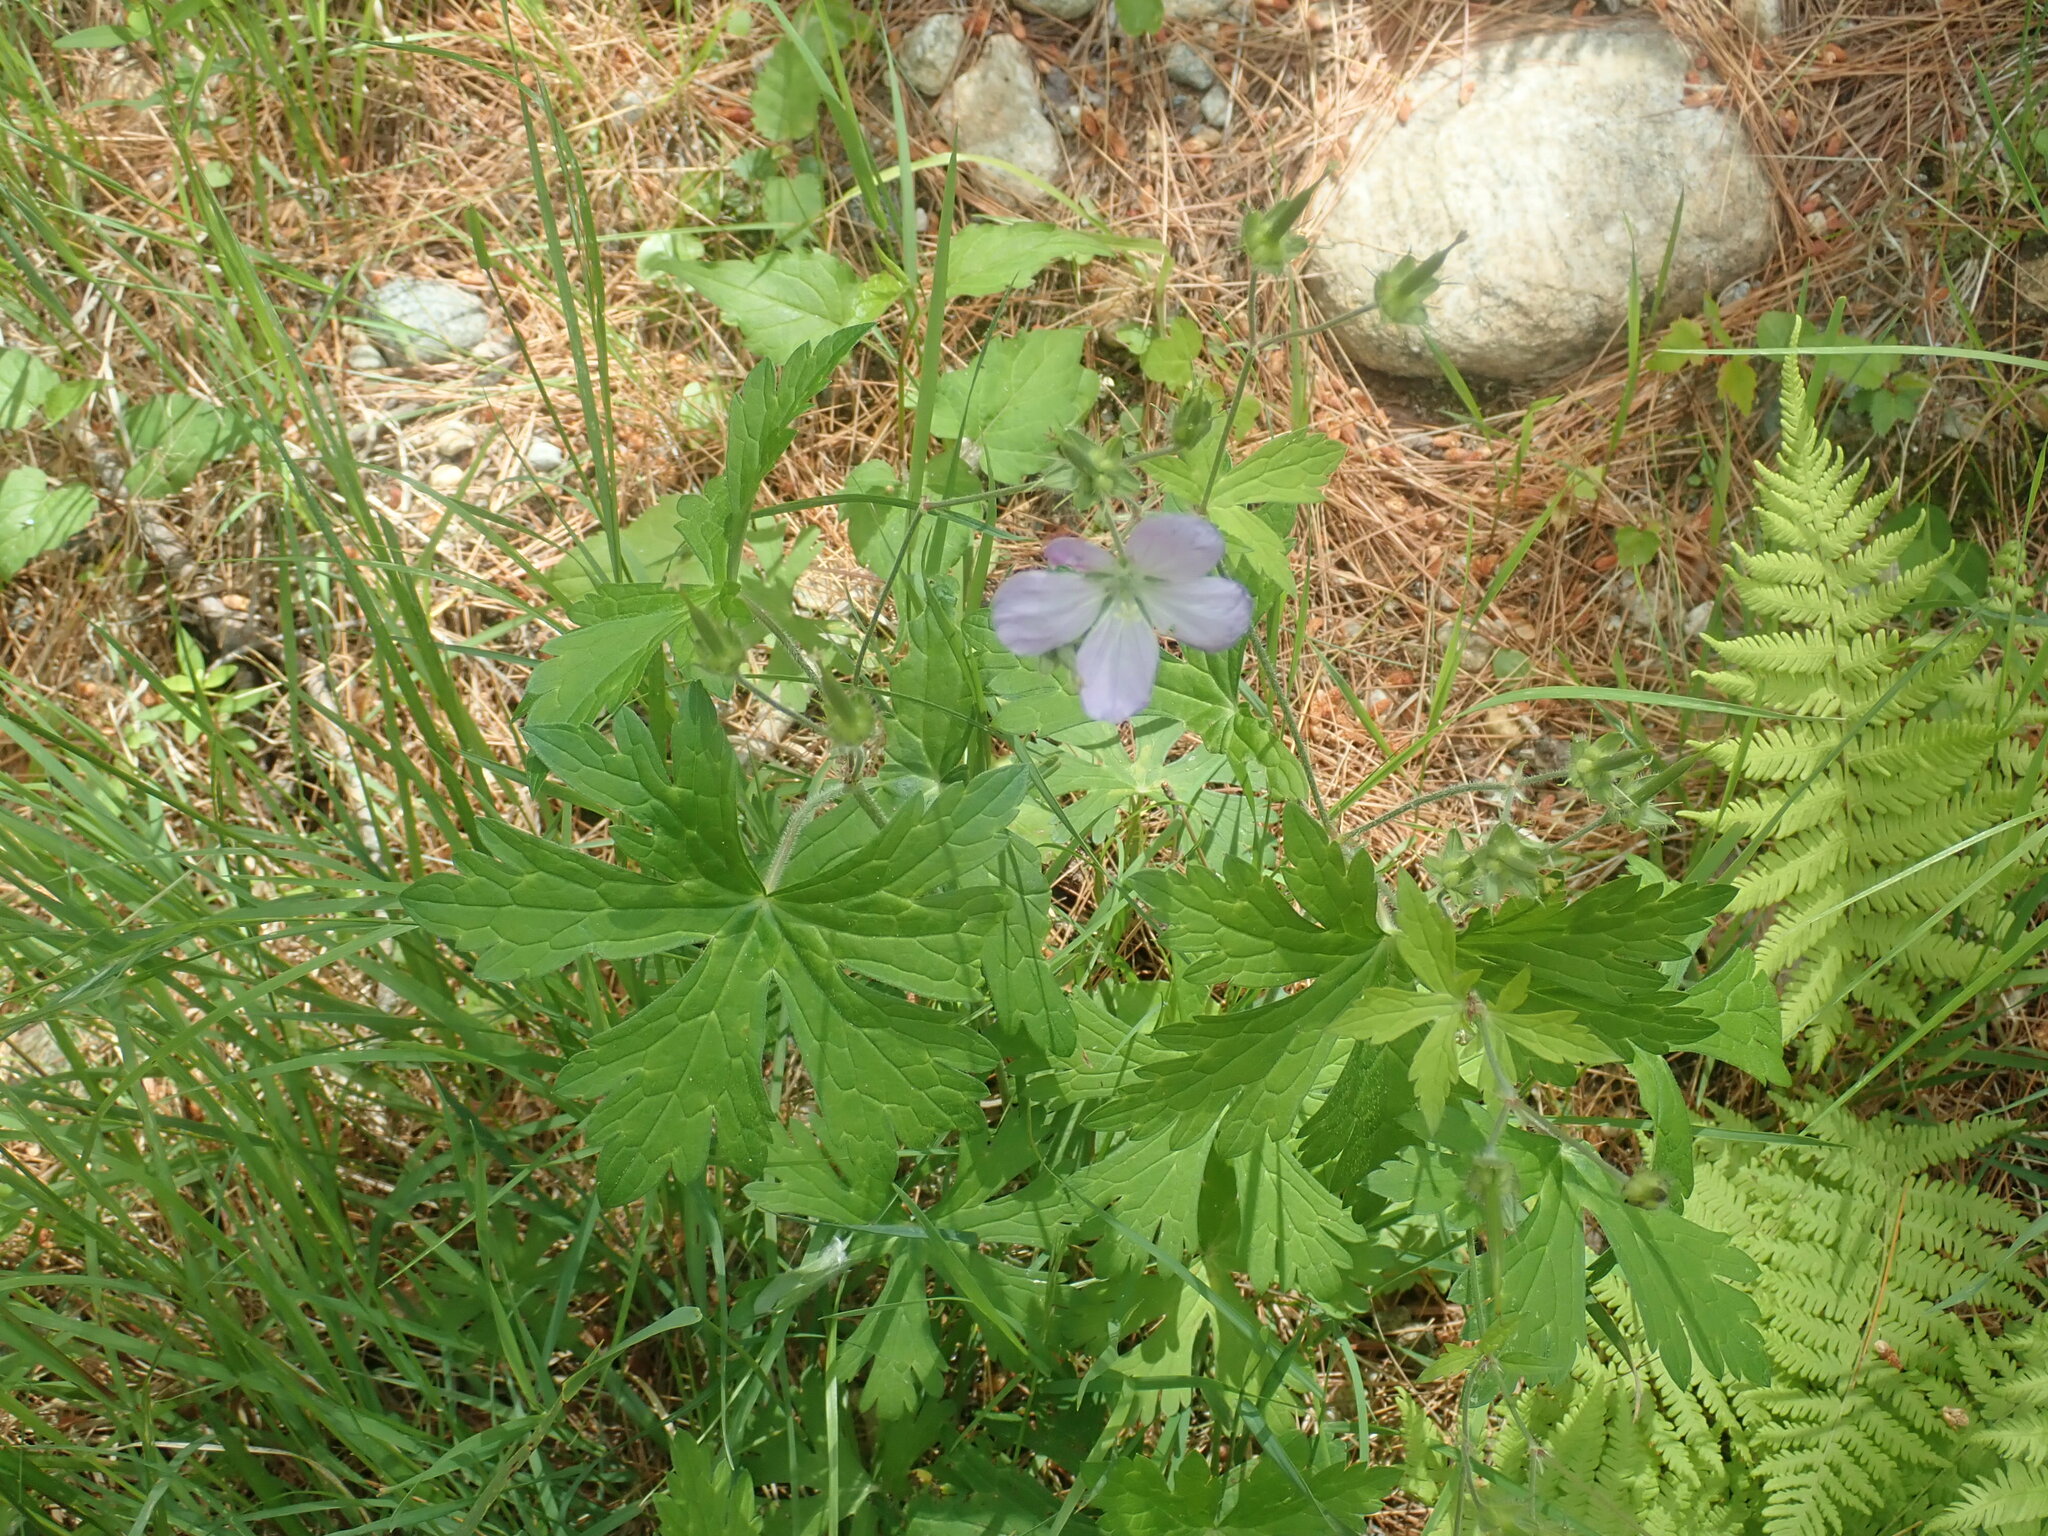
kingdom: Plantae
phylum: Tracheophyta
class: Magnoliopsida
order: Geraniales
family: Geraniaceae
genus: Geranium
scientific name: Geranium maculatum
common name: Spotted geranium
